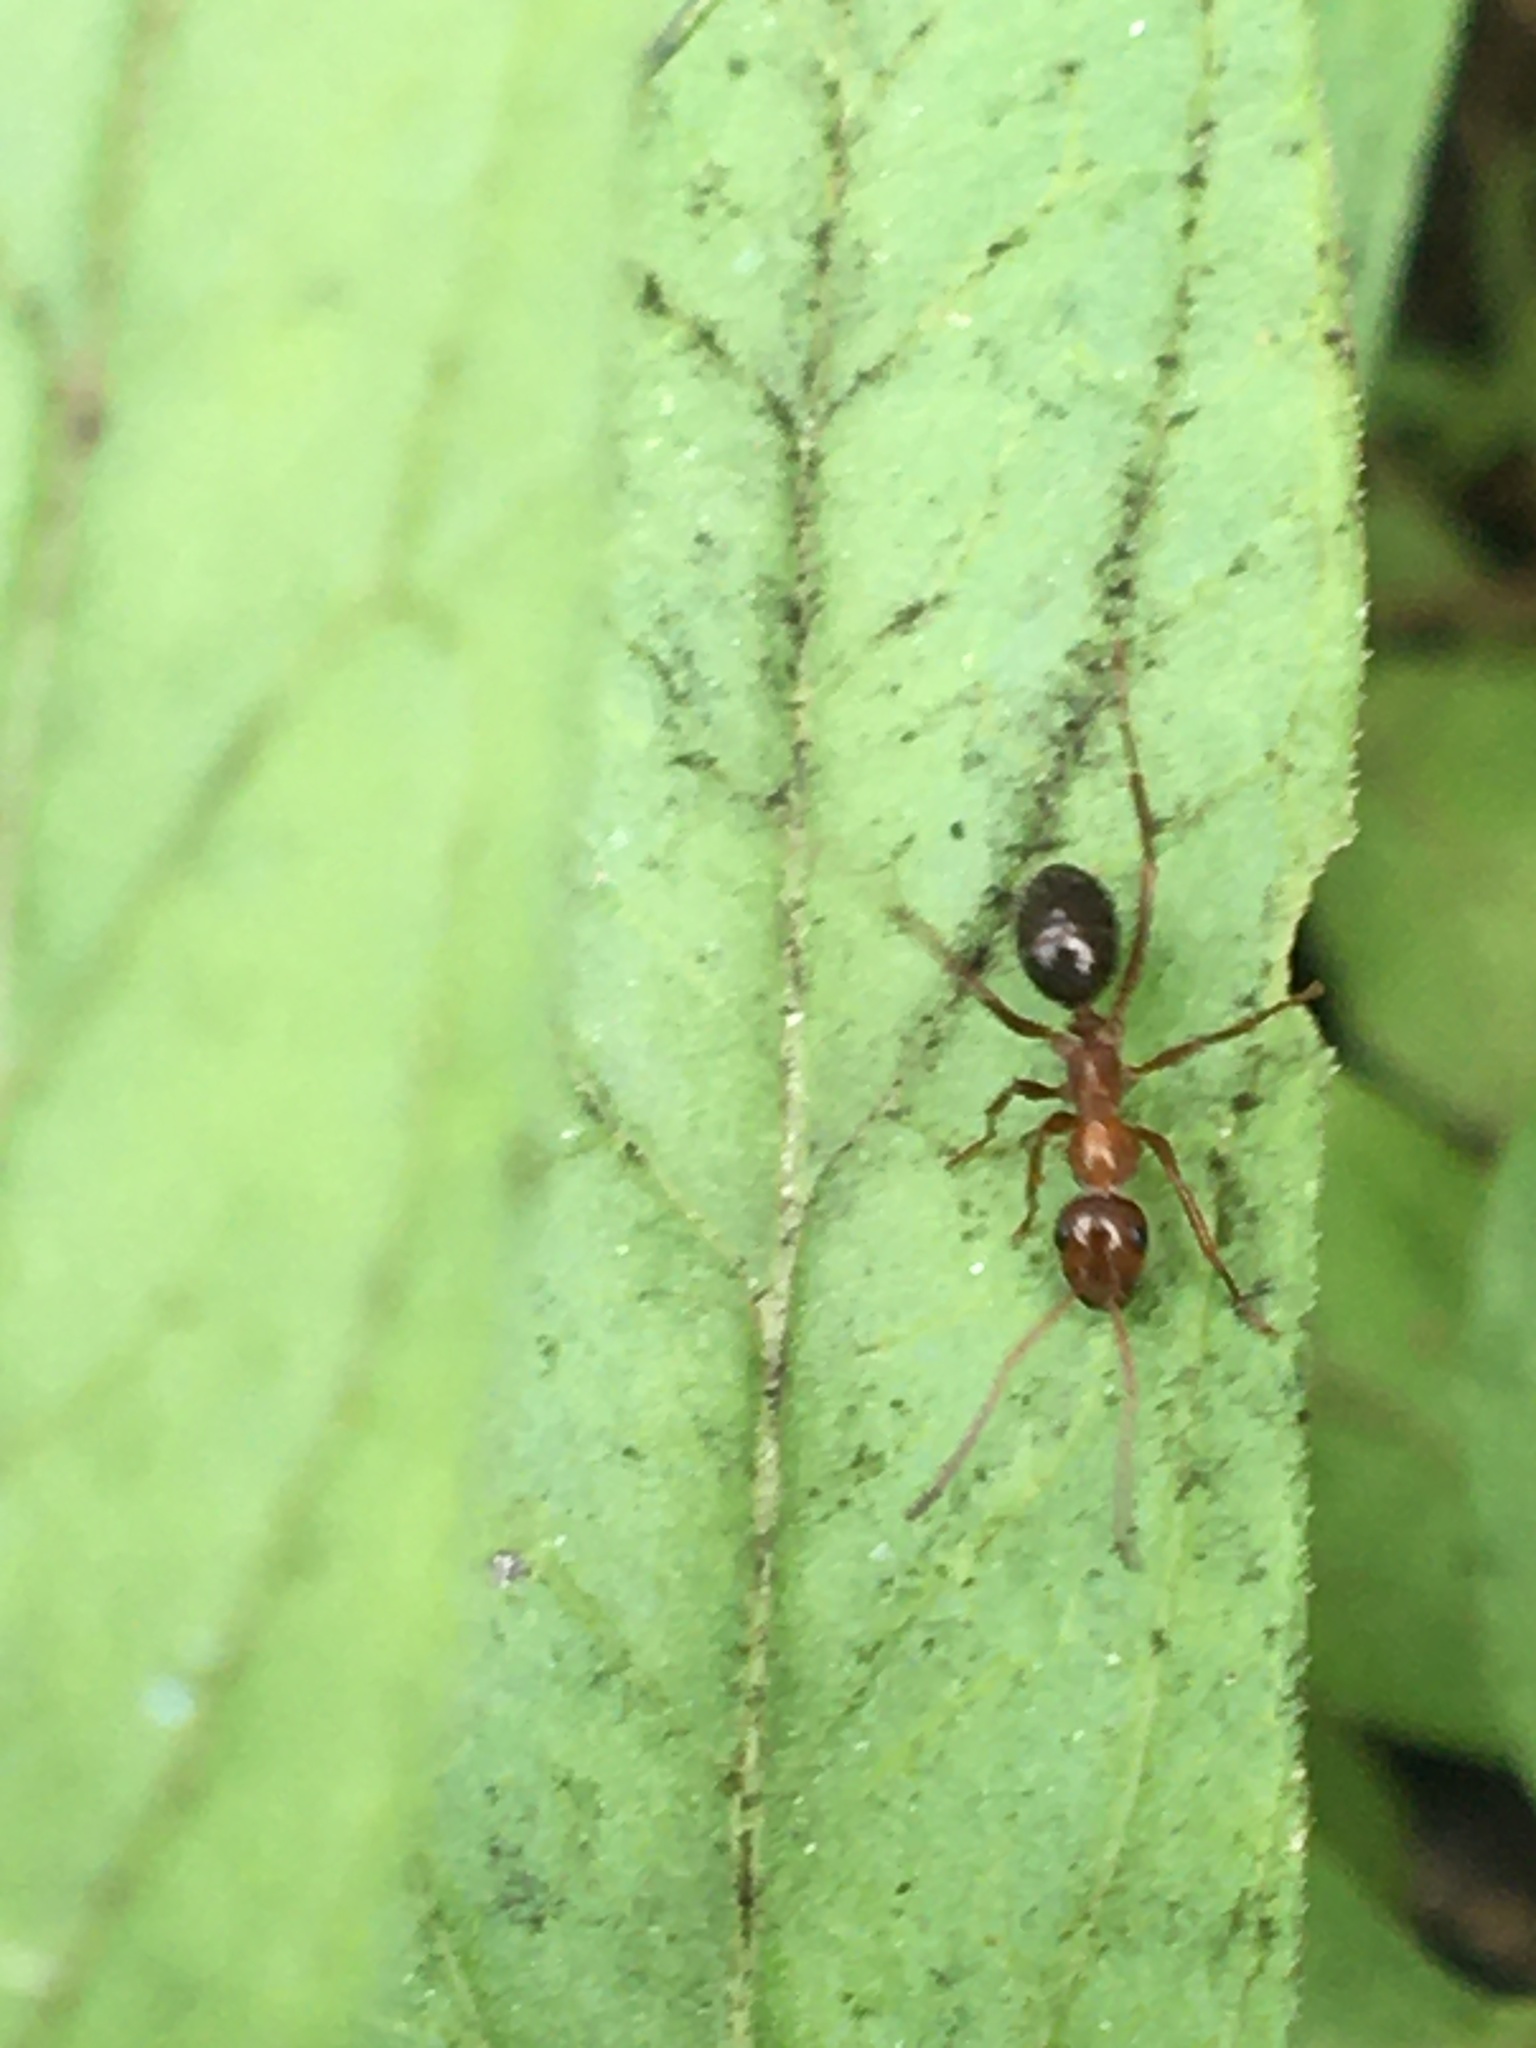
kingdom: Animalia
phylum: Arthropoda
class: Insecta
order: Hymenoptera
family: Formicidae
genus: Formica
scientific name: Formica
